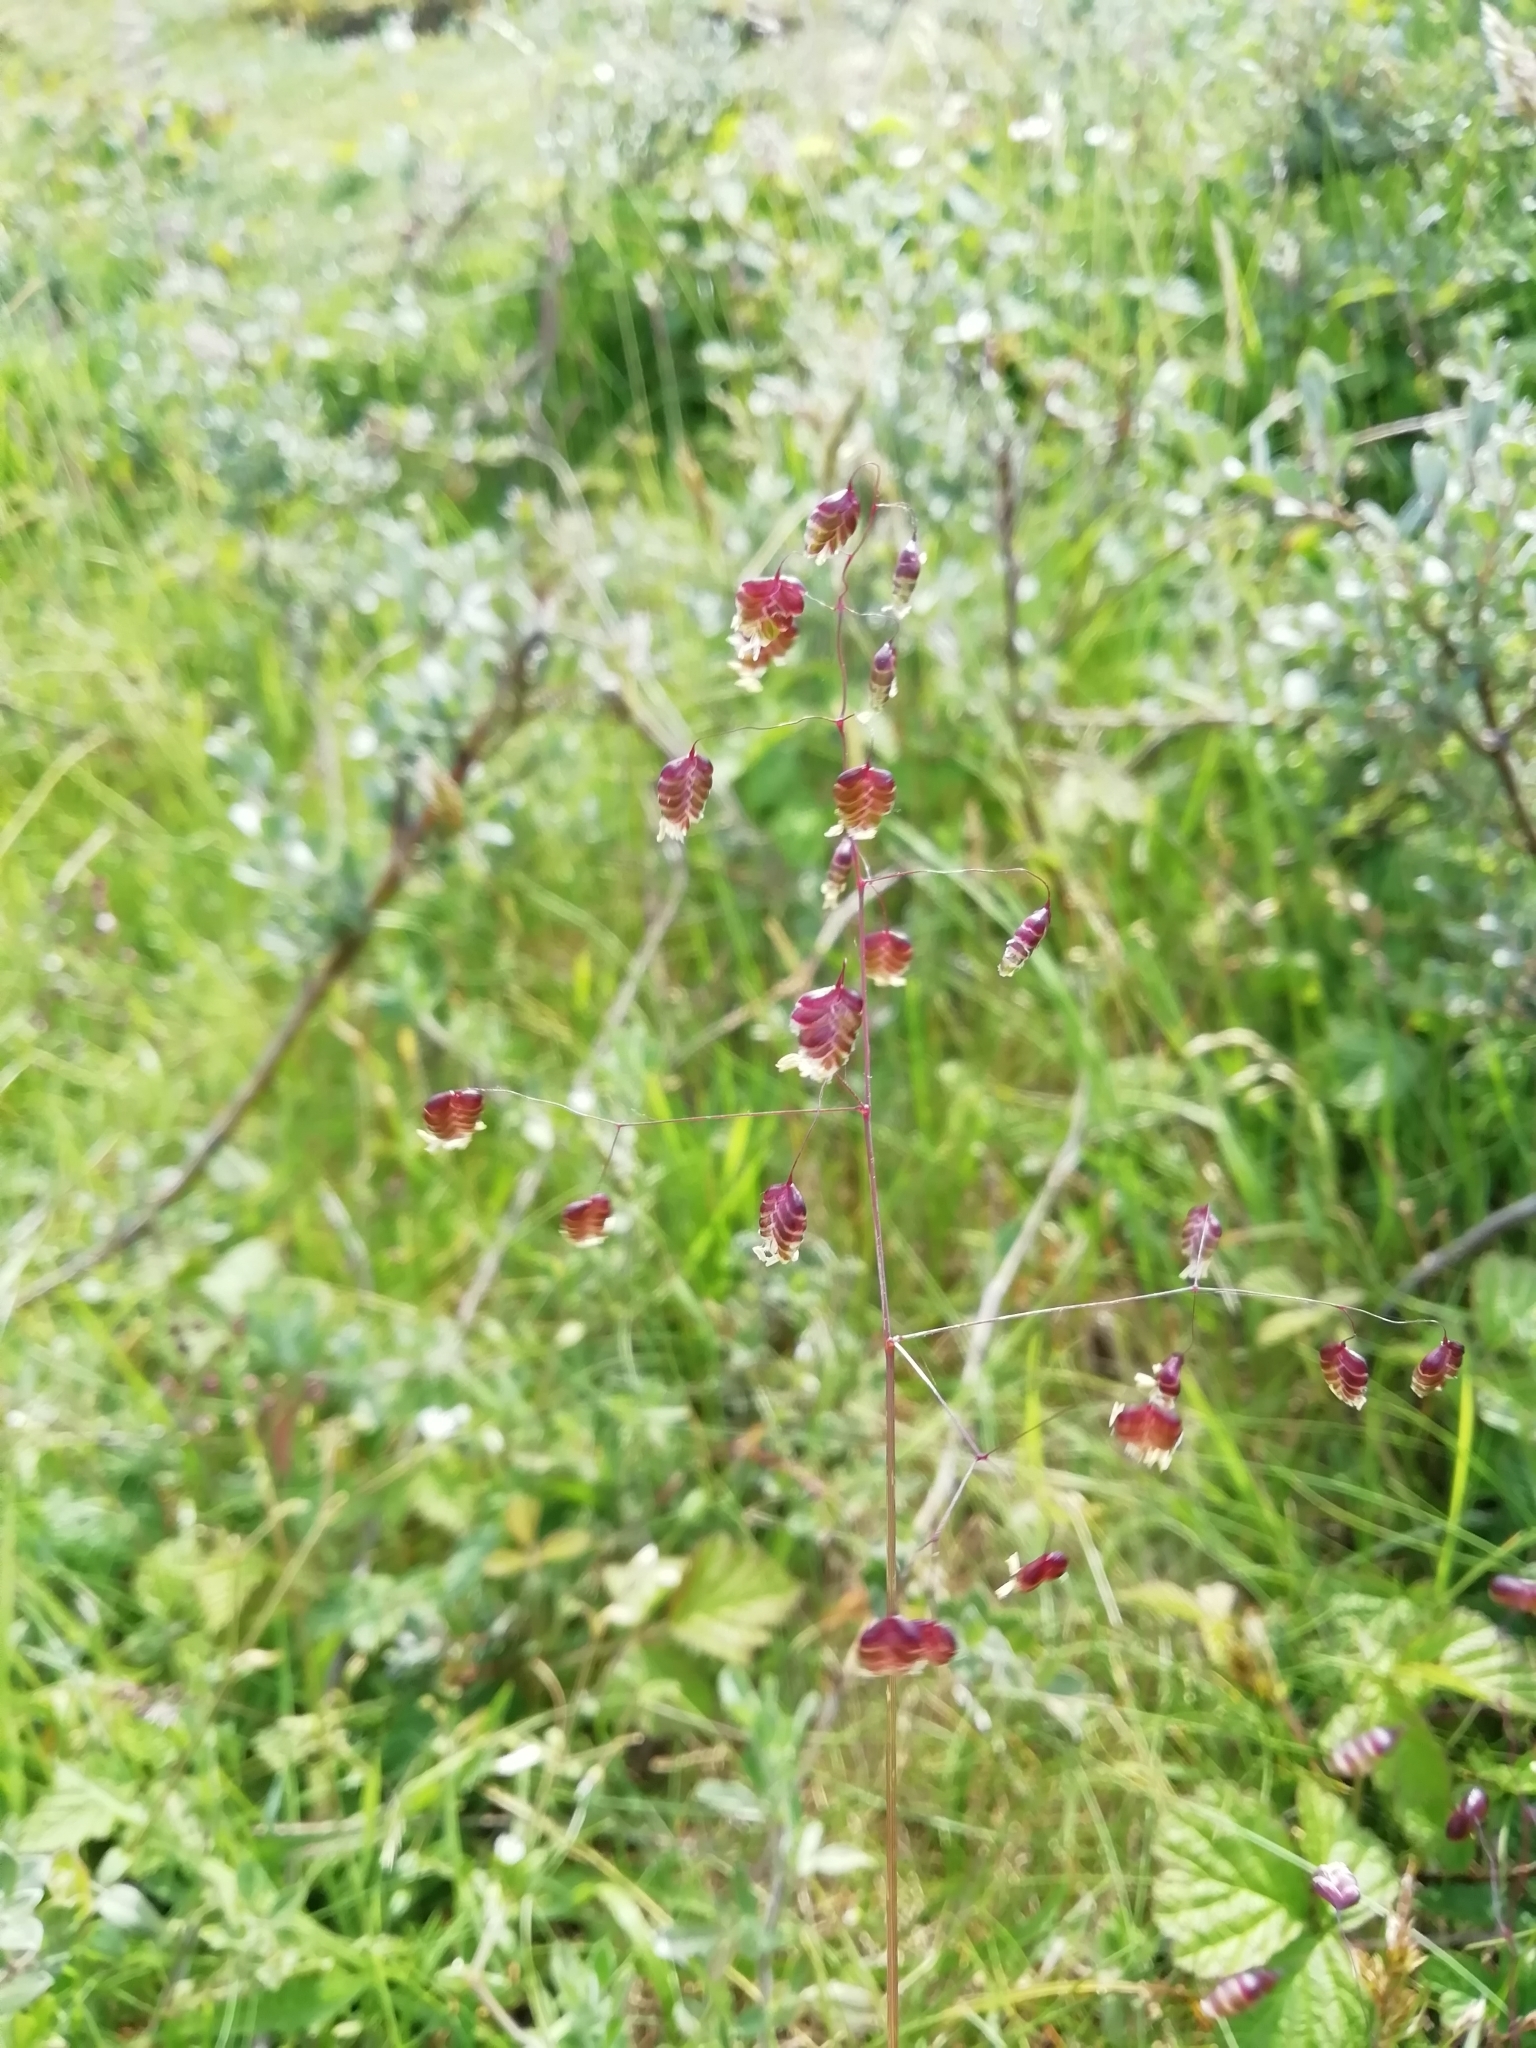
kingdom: Plantae
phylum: Tracheophyta
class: Liliopsida
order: Poales
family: Poaceae
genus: Briza
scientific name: Briza media
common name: Quaking grass
